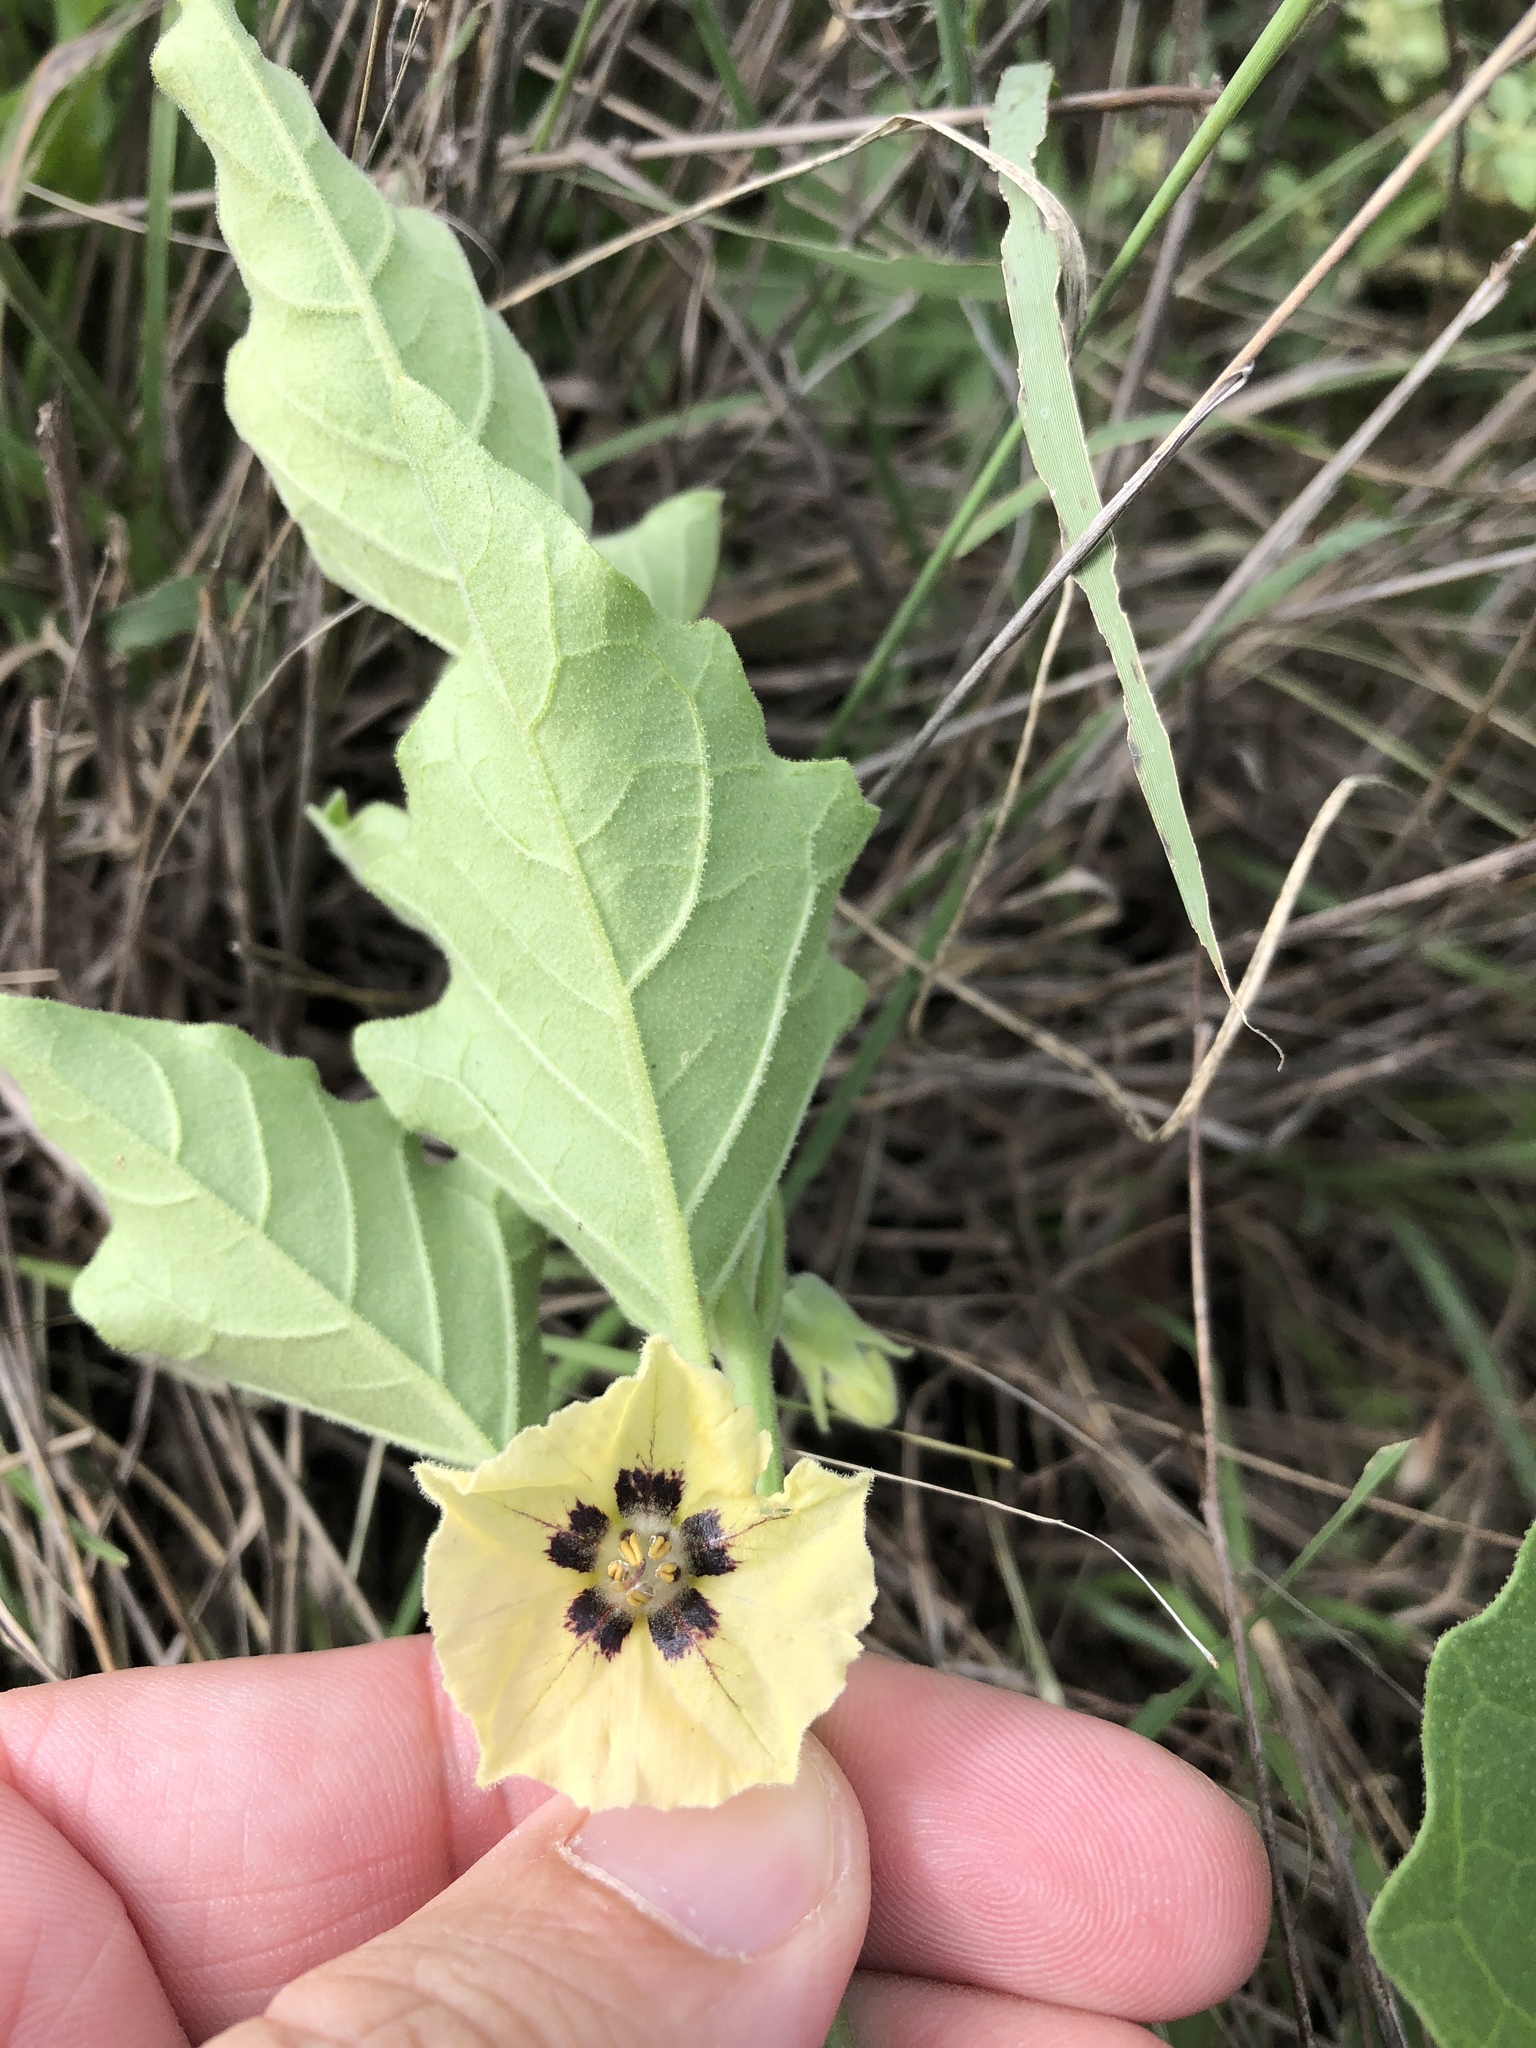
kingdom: Plantae
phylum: Tracheophyta
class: Magnoliopsida
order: Solanales
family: Solanaceae
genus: Physalis
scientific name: Physalis cinerascens
